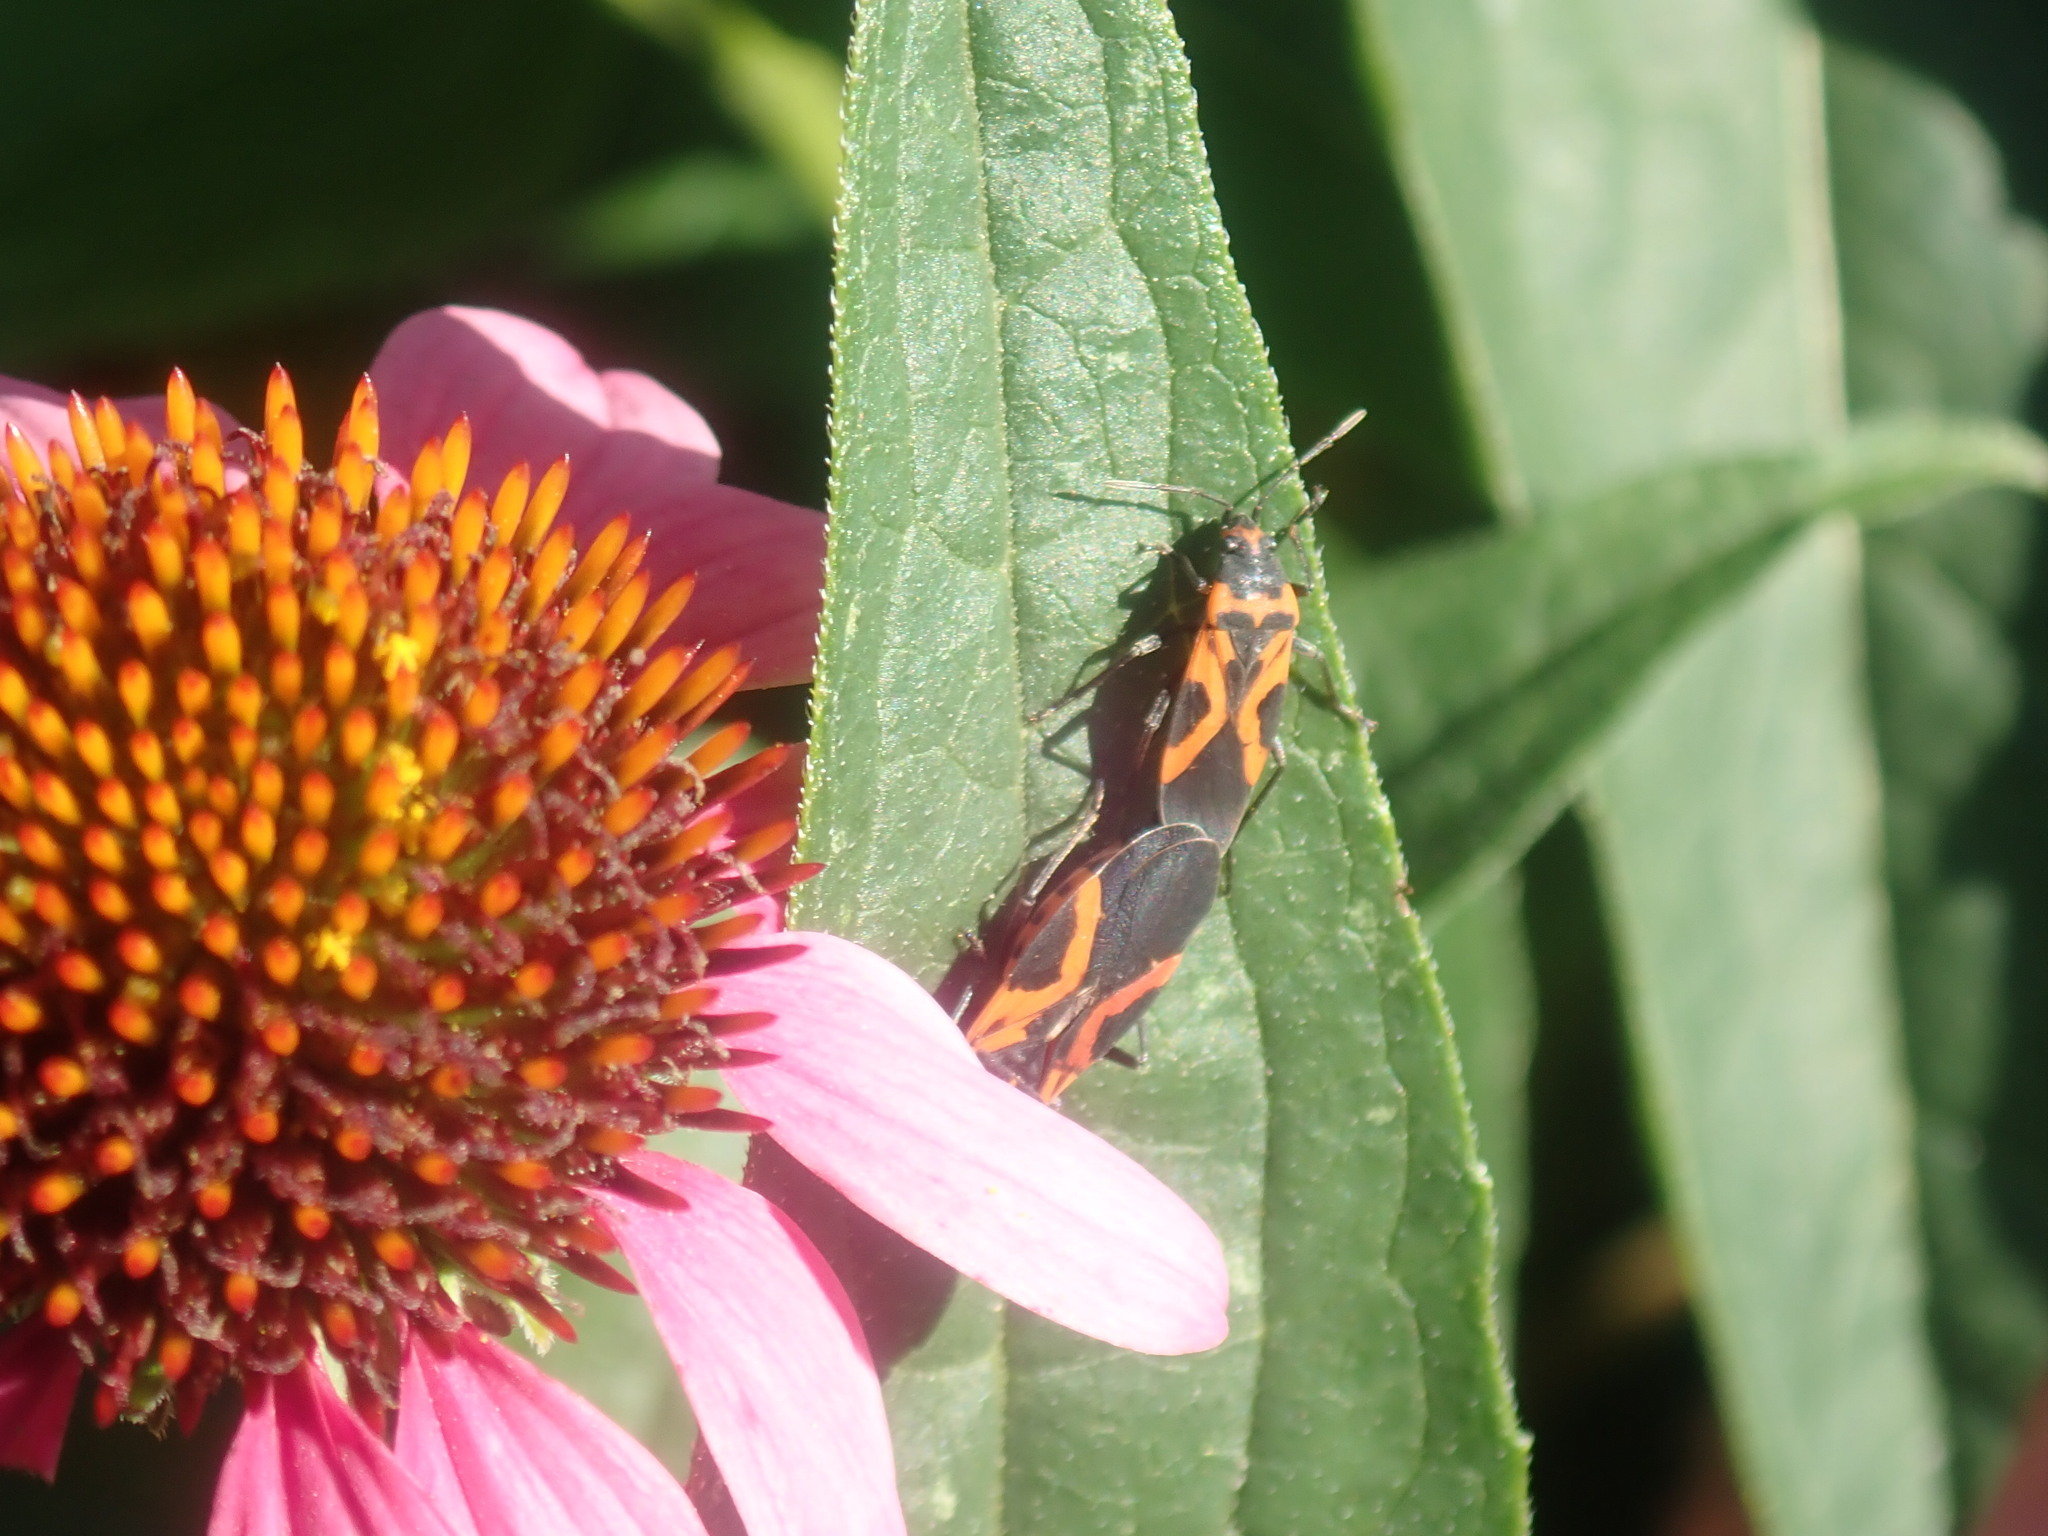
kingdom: Animalia
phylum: Arthropoda
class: Insecta
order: Hemiptera
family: Lygaeidae
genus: Lygaeus
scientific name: Lygaeus turcicus
